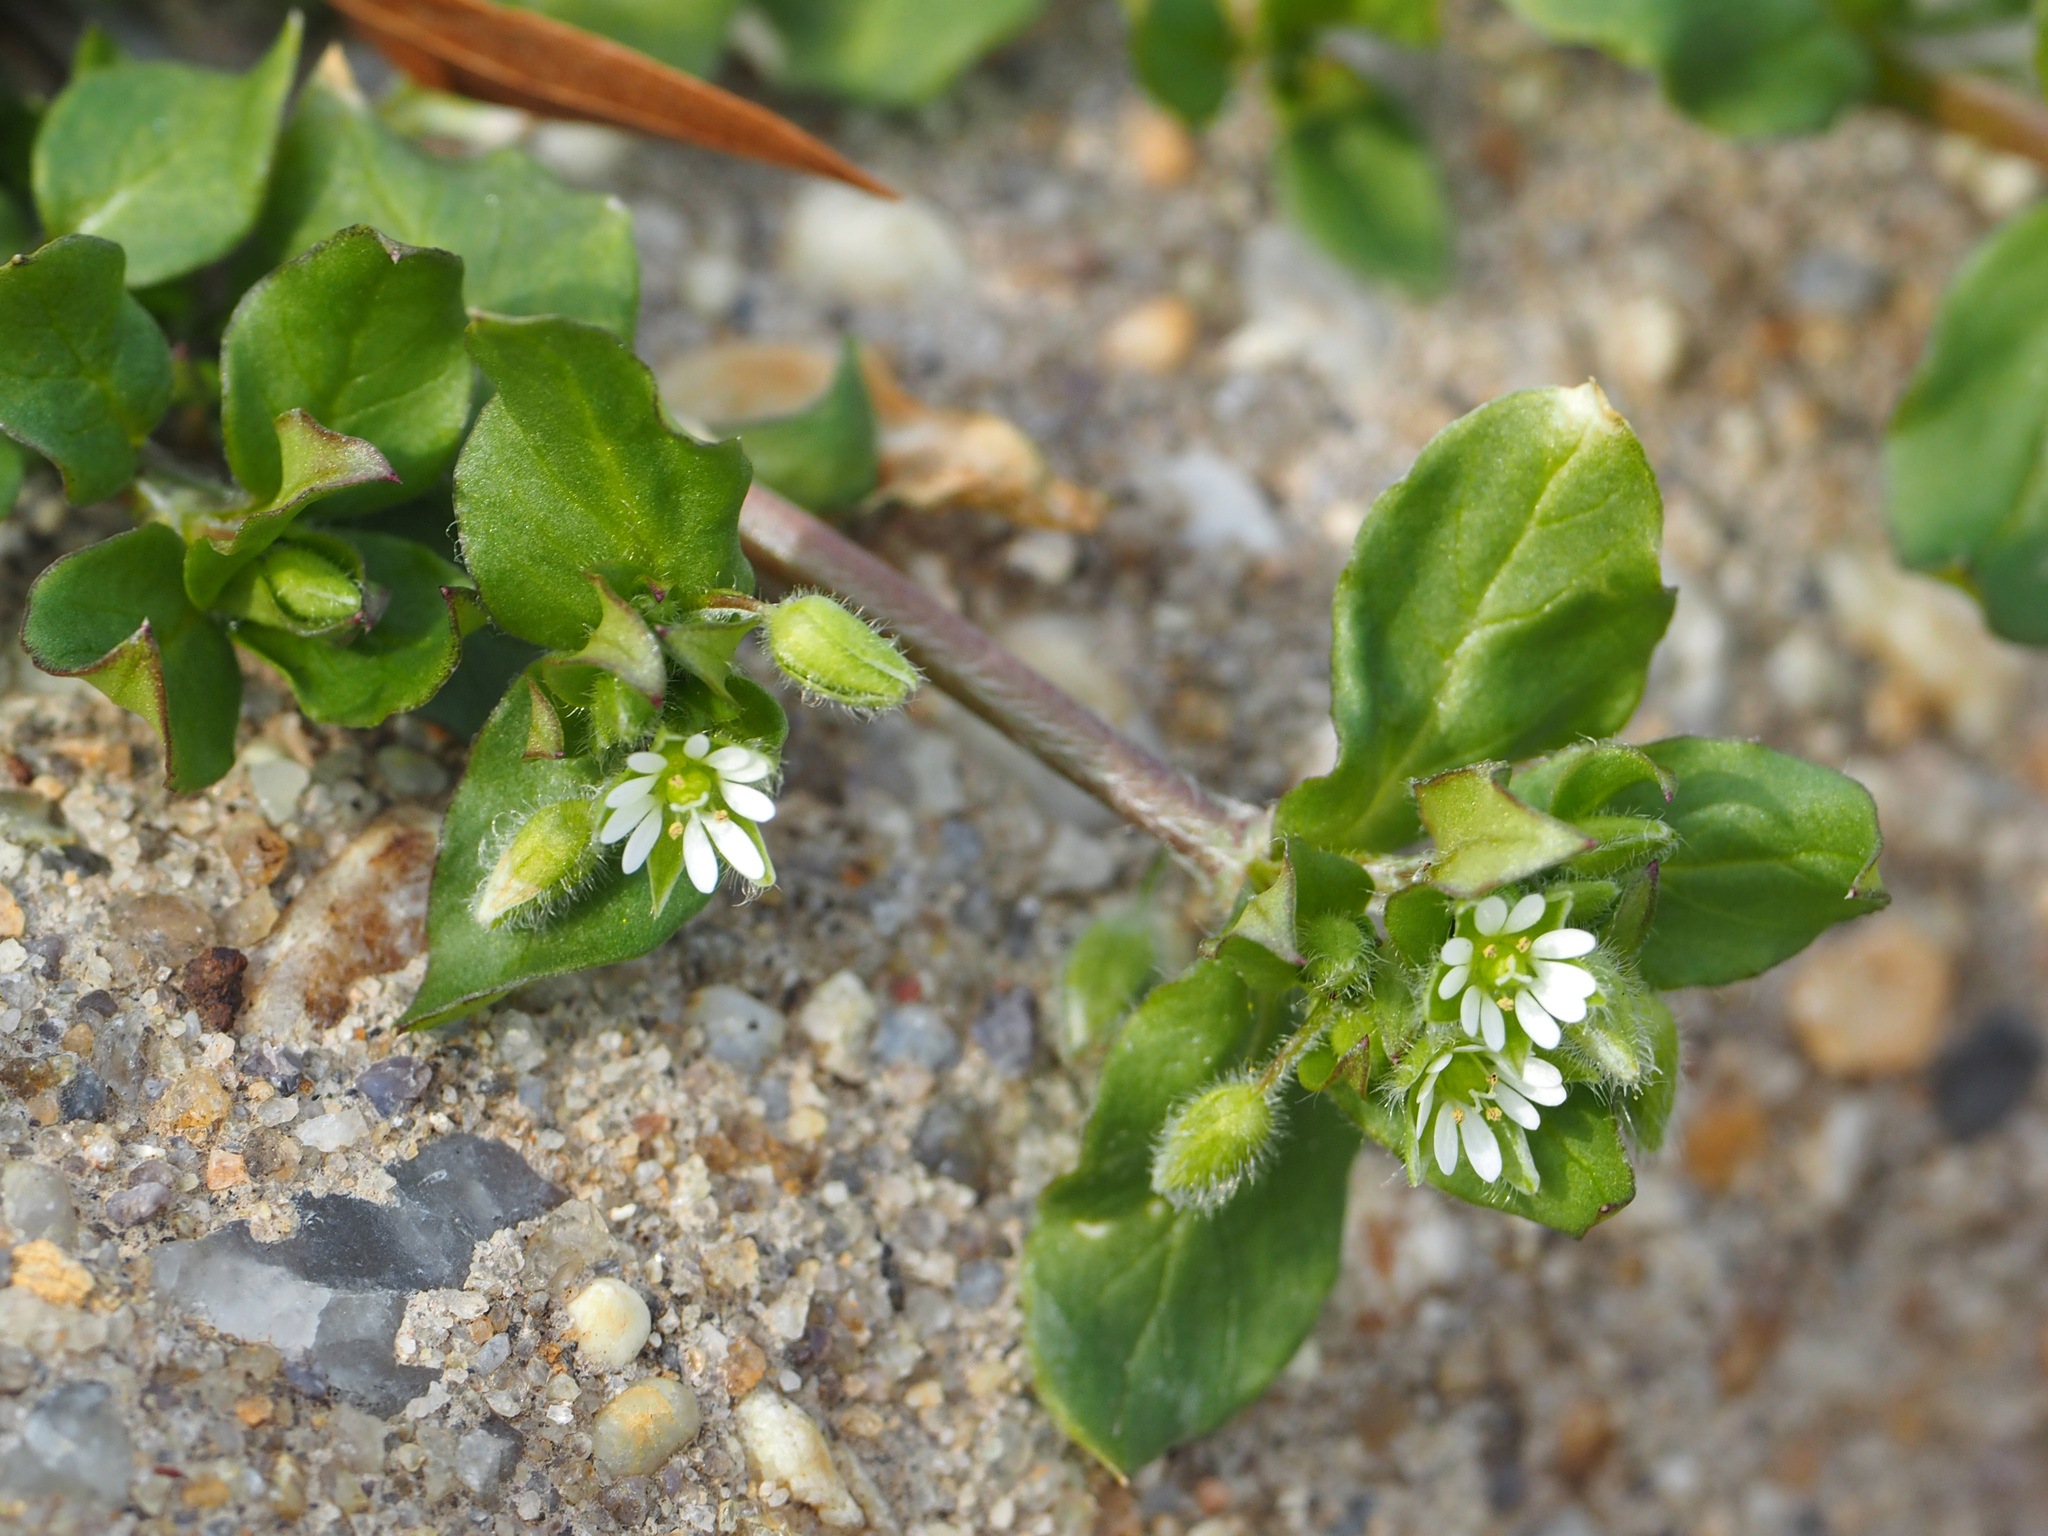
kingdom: Plantae
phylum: Tracheophyta
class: Magnoliopsida
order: Caryophyllales
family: Caryophyllaceae
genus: Stellaria
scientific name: Stellaria media
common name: Common chickweed
